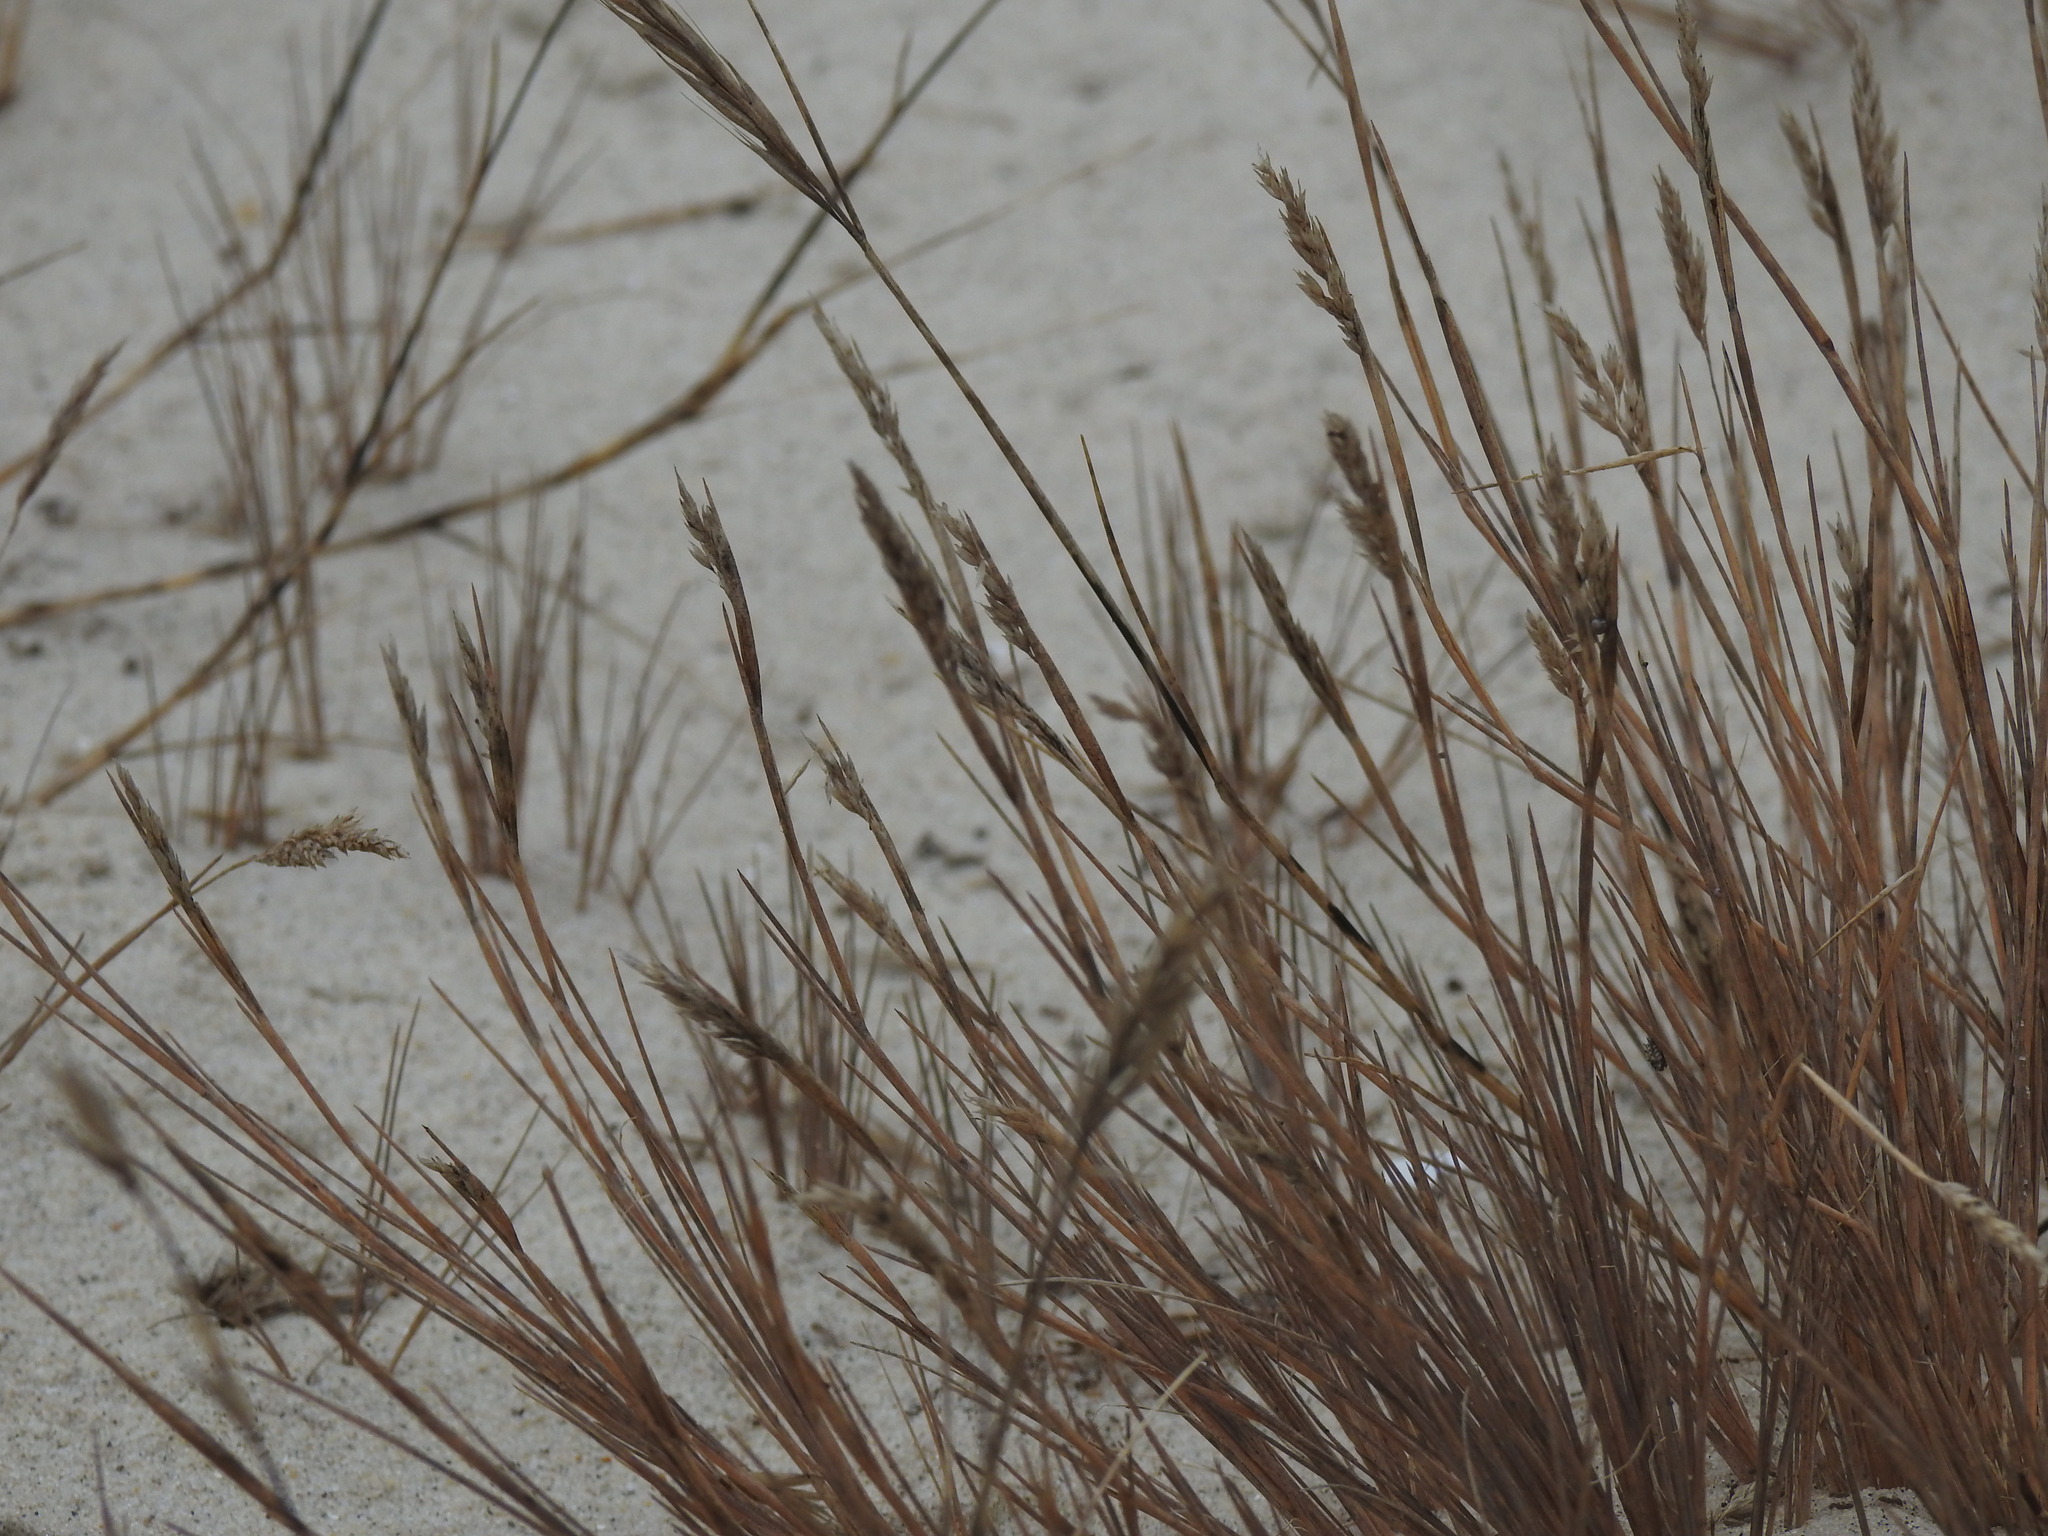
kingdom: Plantae
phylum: Tracheophyta
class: Liliopsida
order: Poales
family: Poaceae
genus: Corynephorus
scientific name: Corynephorus canescens
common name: Grey hair-grass
